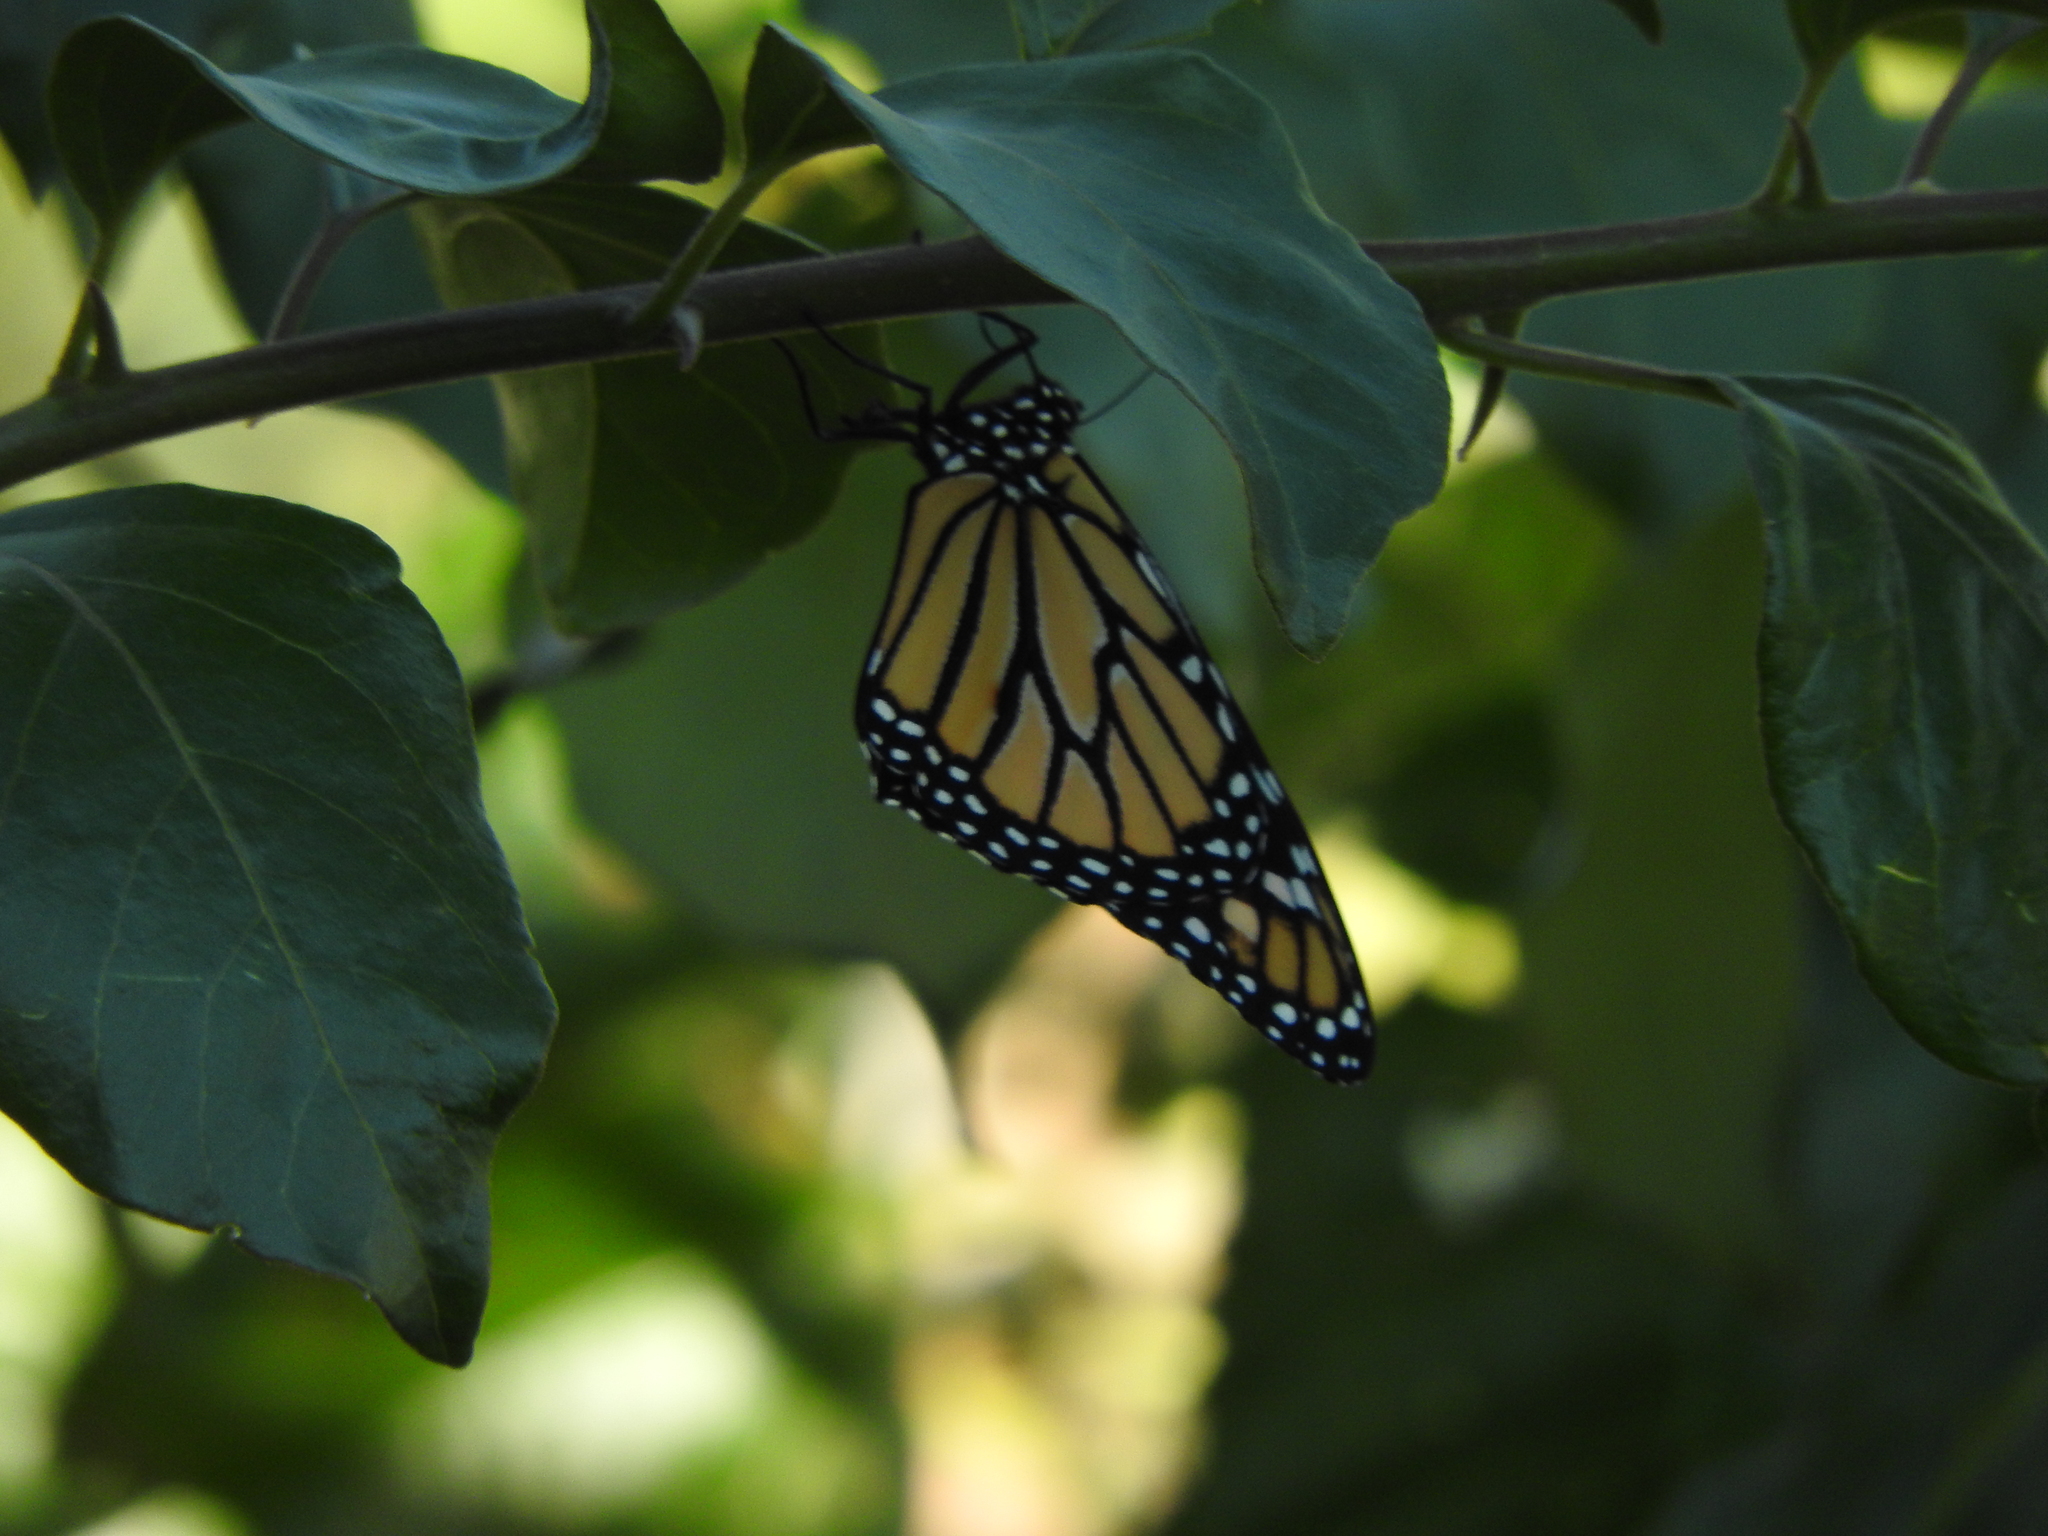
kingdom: Animalia
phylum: Arthropoda
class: Insecta
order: Lepidoptera
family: Nymphalidae
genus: Danaus
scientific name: Danaus plexippus
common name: Monarch
